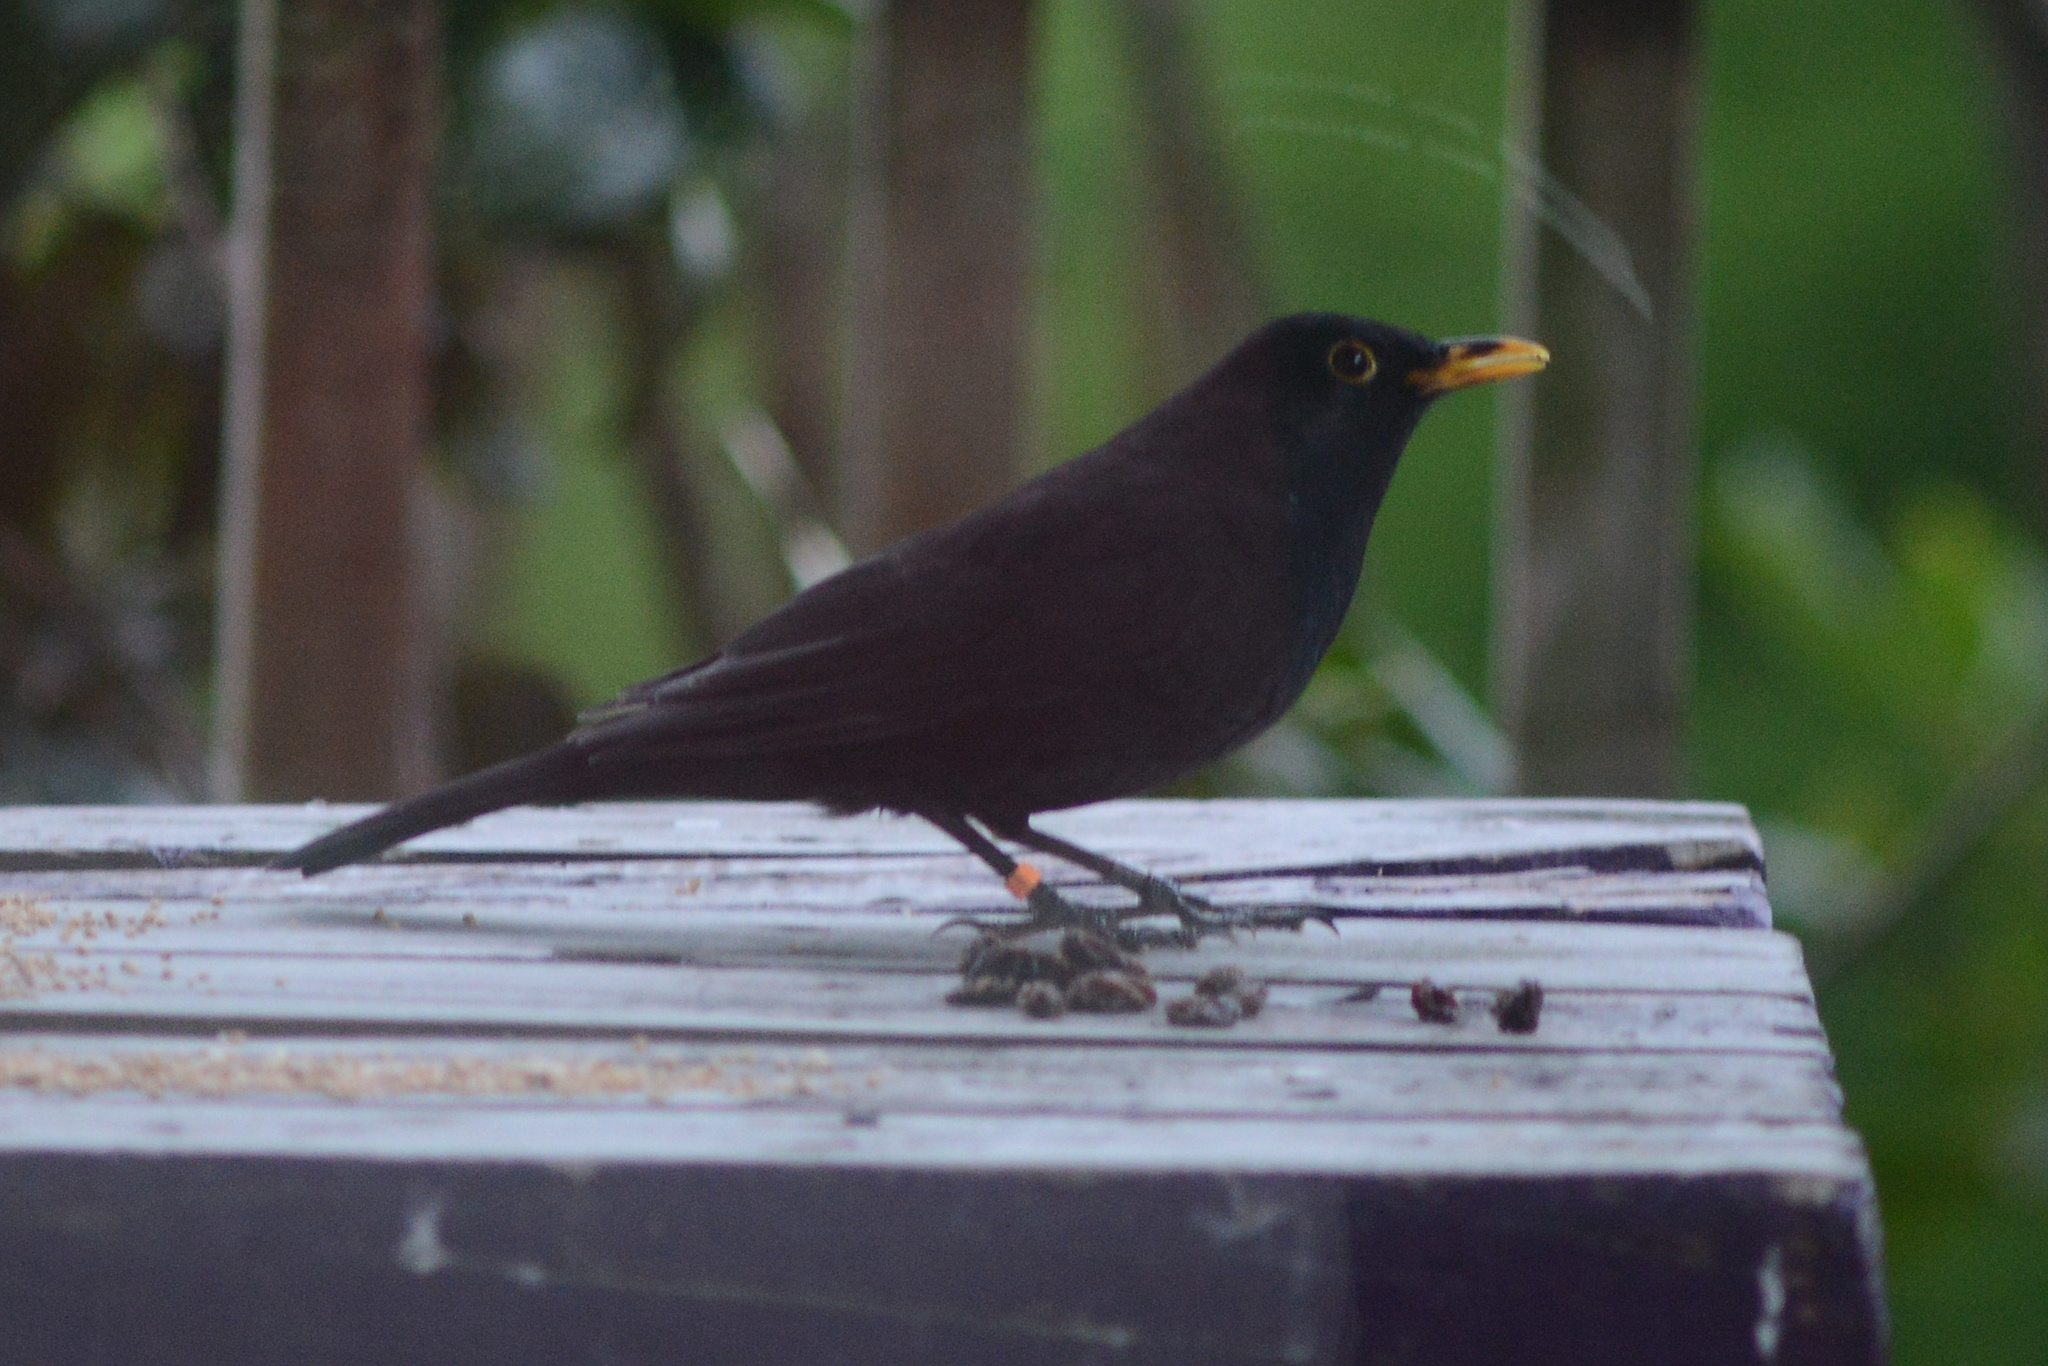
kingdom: Animalia
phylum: Chordata
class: Aves
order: Passeriformes
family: Turdidae
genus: Turdus
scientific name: Turdus merula
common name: Common blackbird
